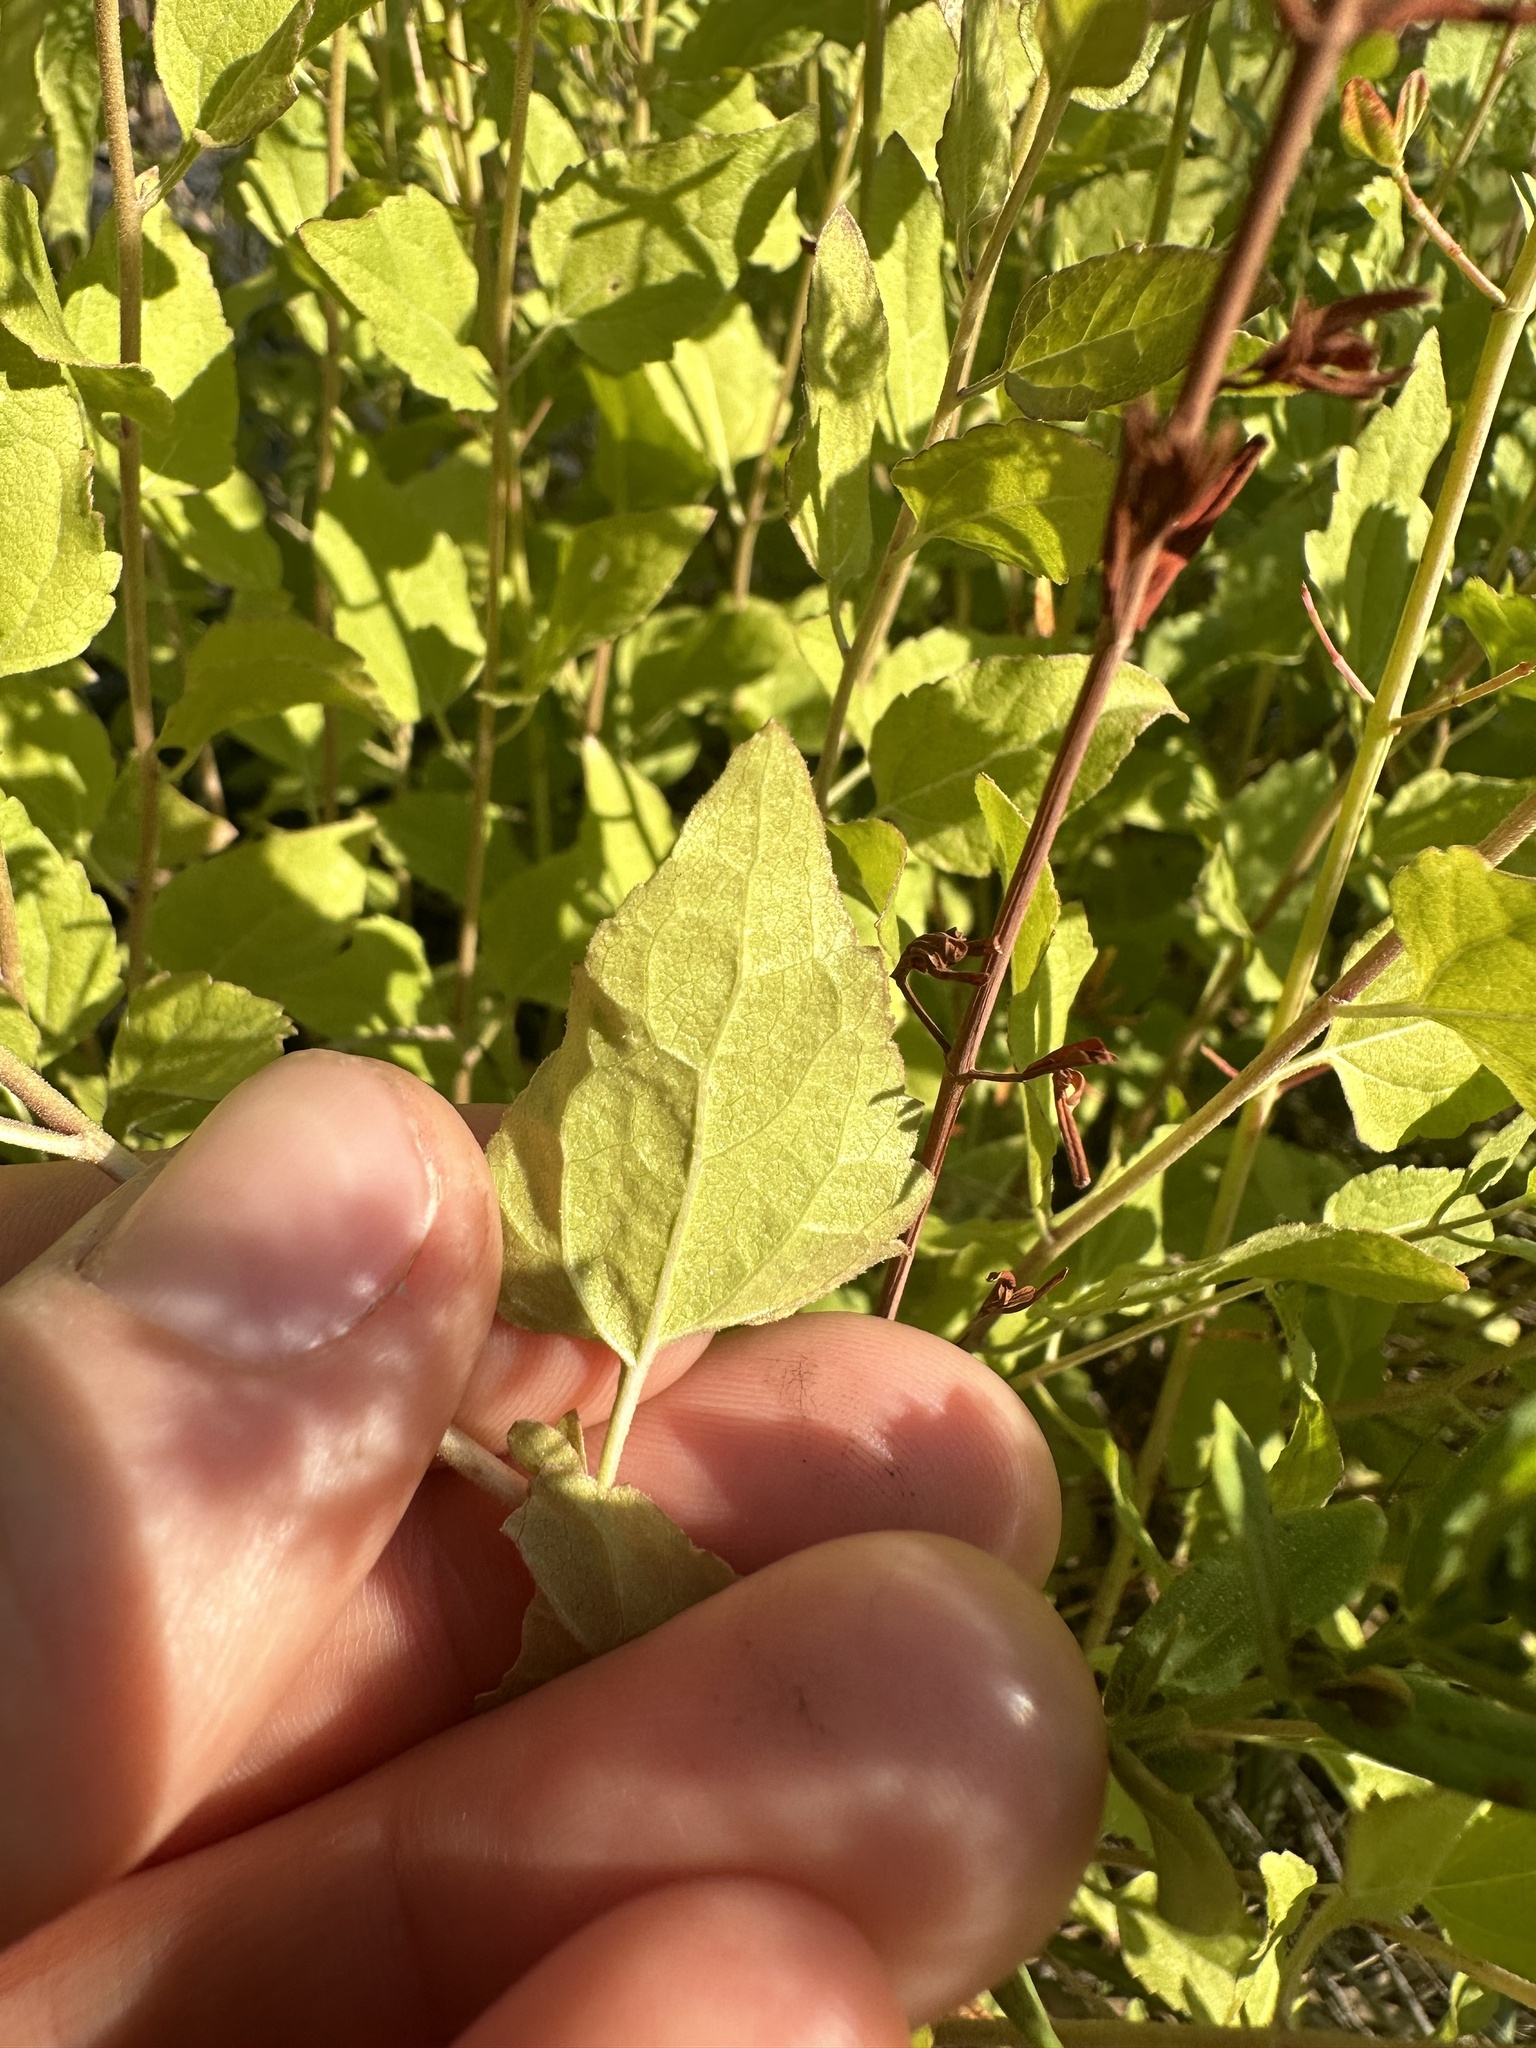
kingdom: Plantae
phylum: Tracheophyta
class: Magnoliopsida
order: Asterales
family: Asteraceae
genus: Ageratina
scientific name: Ageratina occidentalis
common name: Western snakeroot
